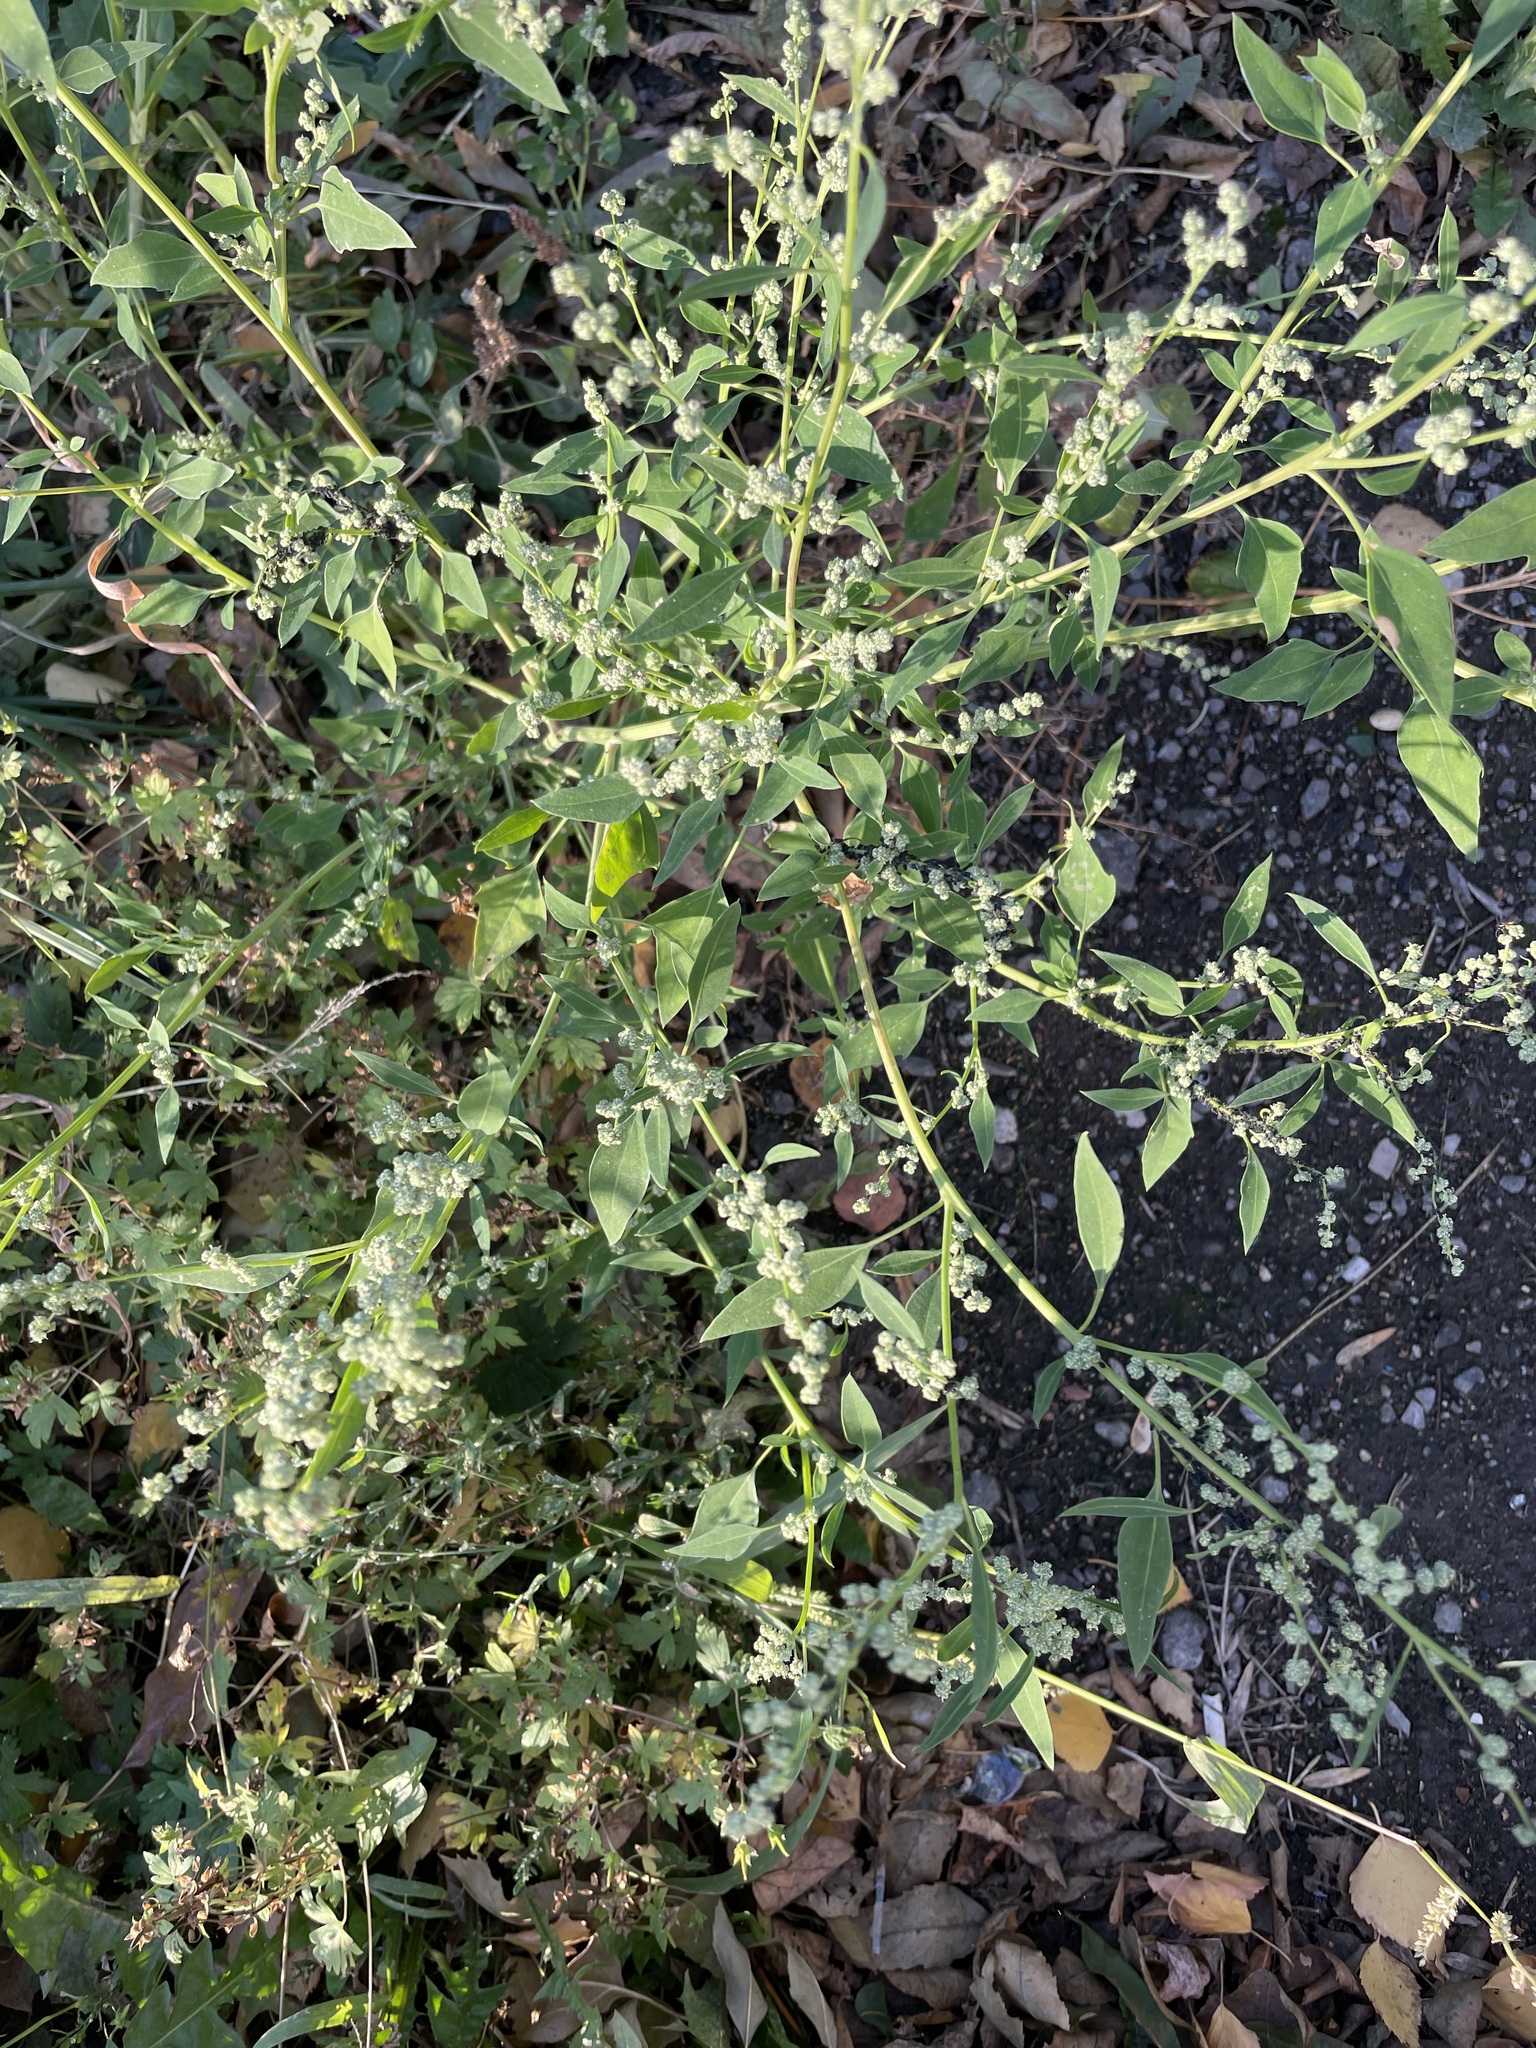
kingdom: Plantae
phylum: Tracheophyta
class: Magnoliopsida
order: Caryophyllales
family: Amaranthaceae
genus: Chenopodium
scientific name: Chenopodium album
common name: Fat-hen
